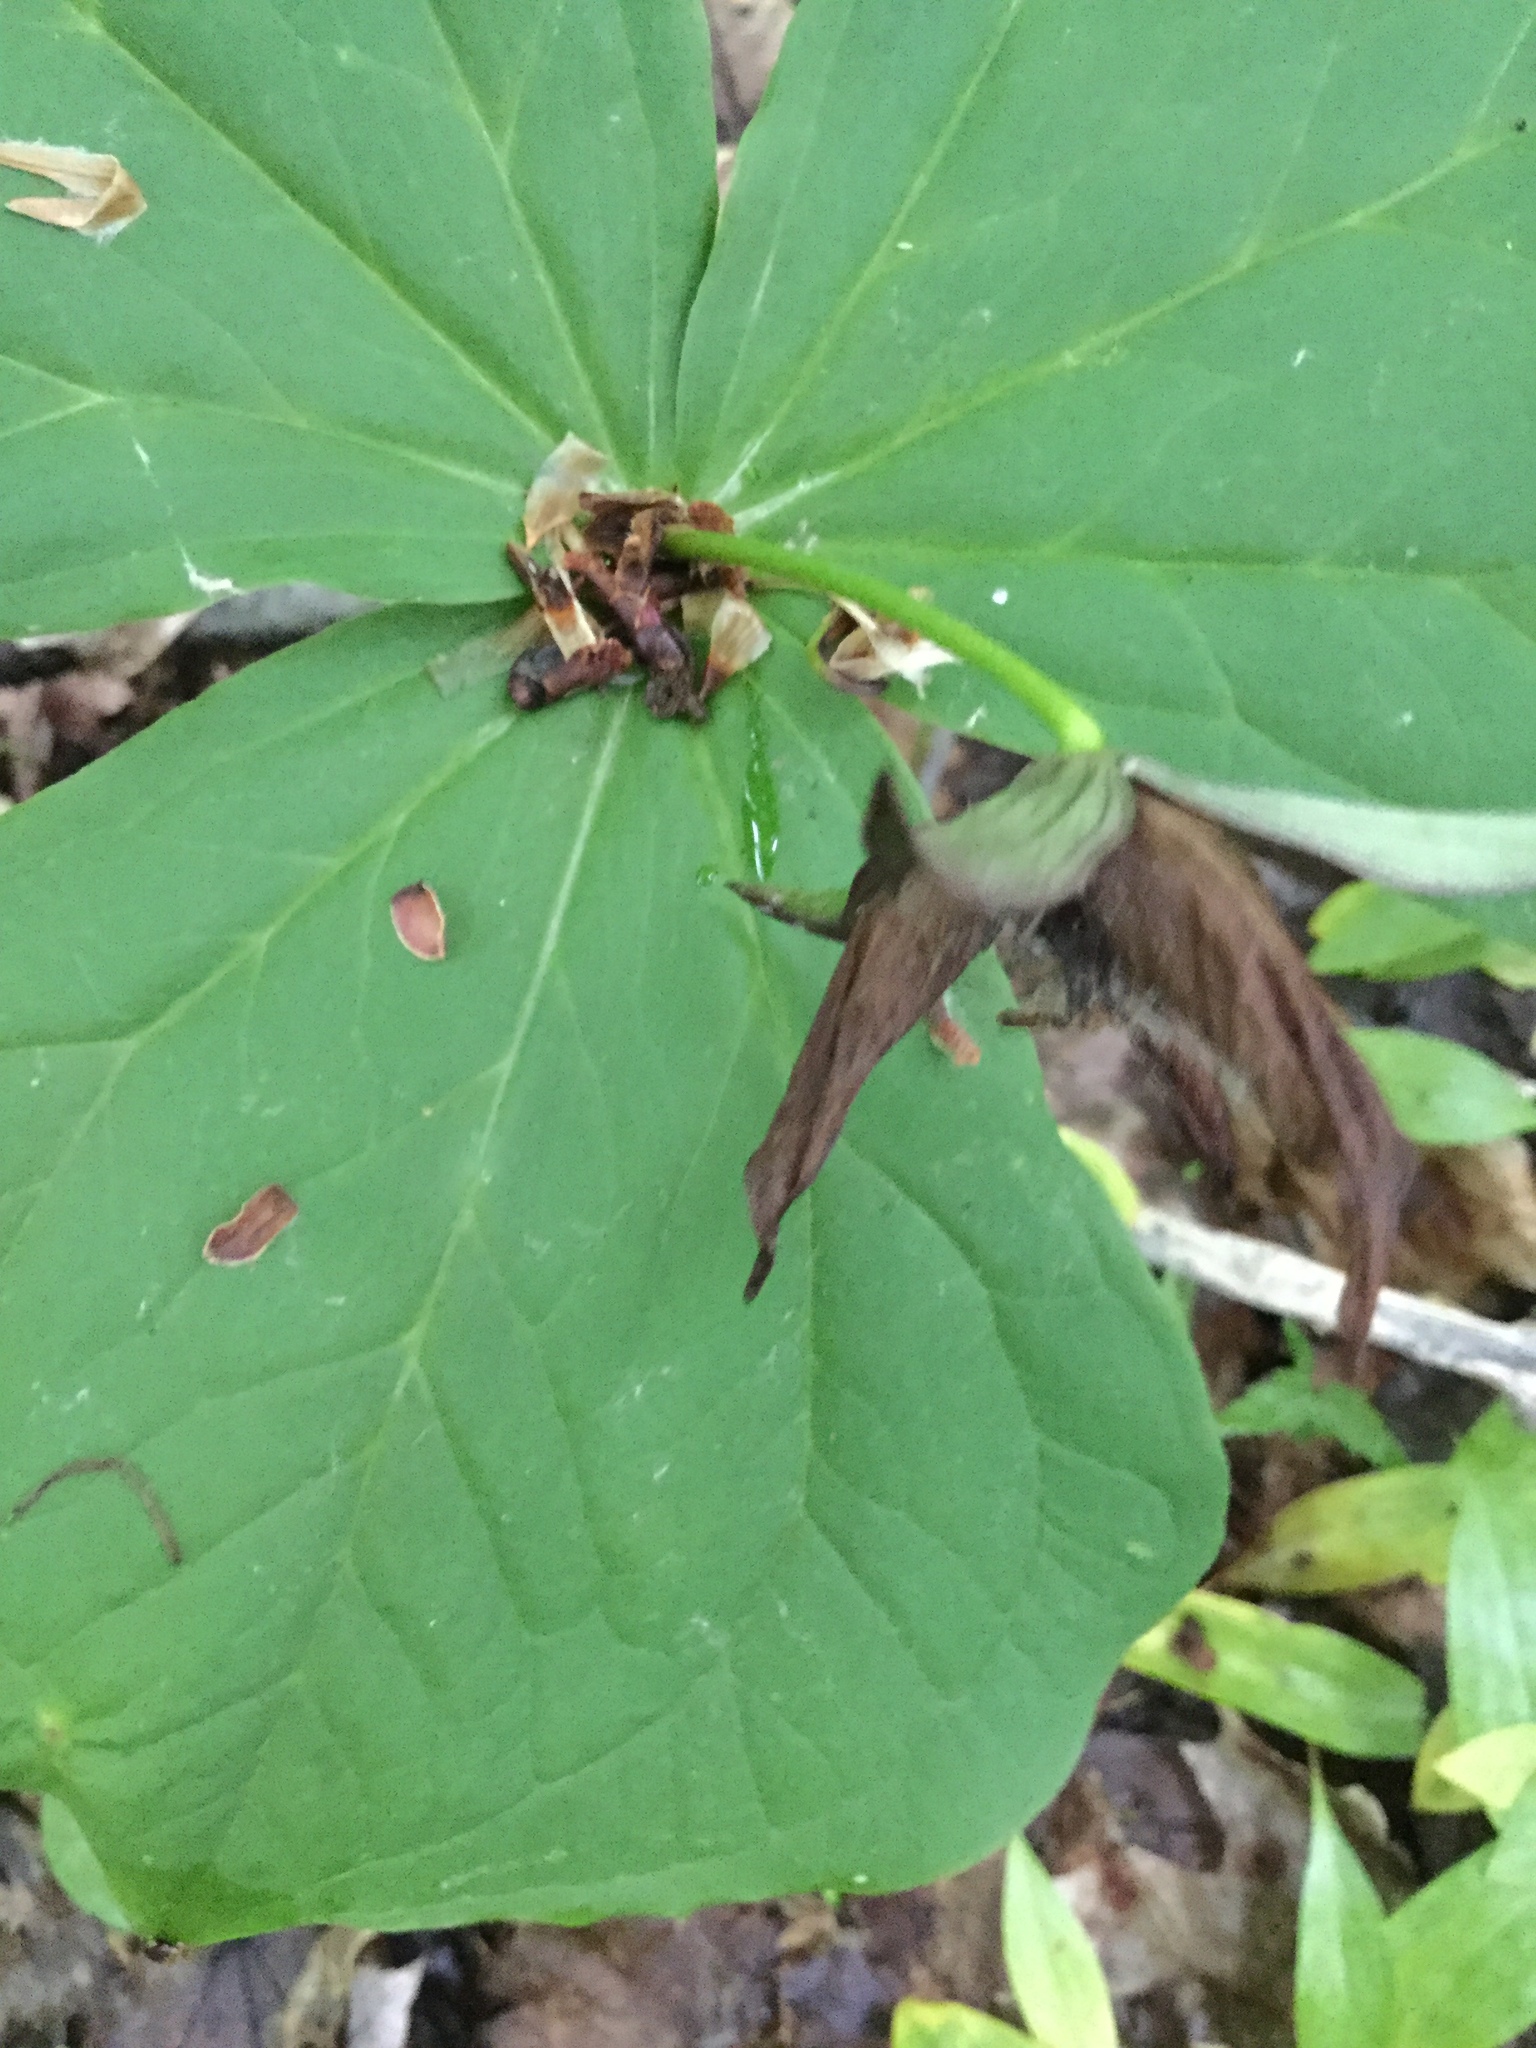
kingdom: Plantae
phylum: Tracheophyta
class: Liliopsida
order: Liliales
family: Melanthiaceae
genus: Trillium
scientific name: Trillium erectum
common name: Purple trillium
